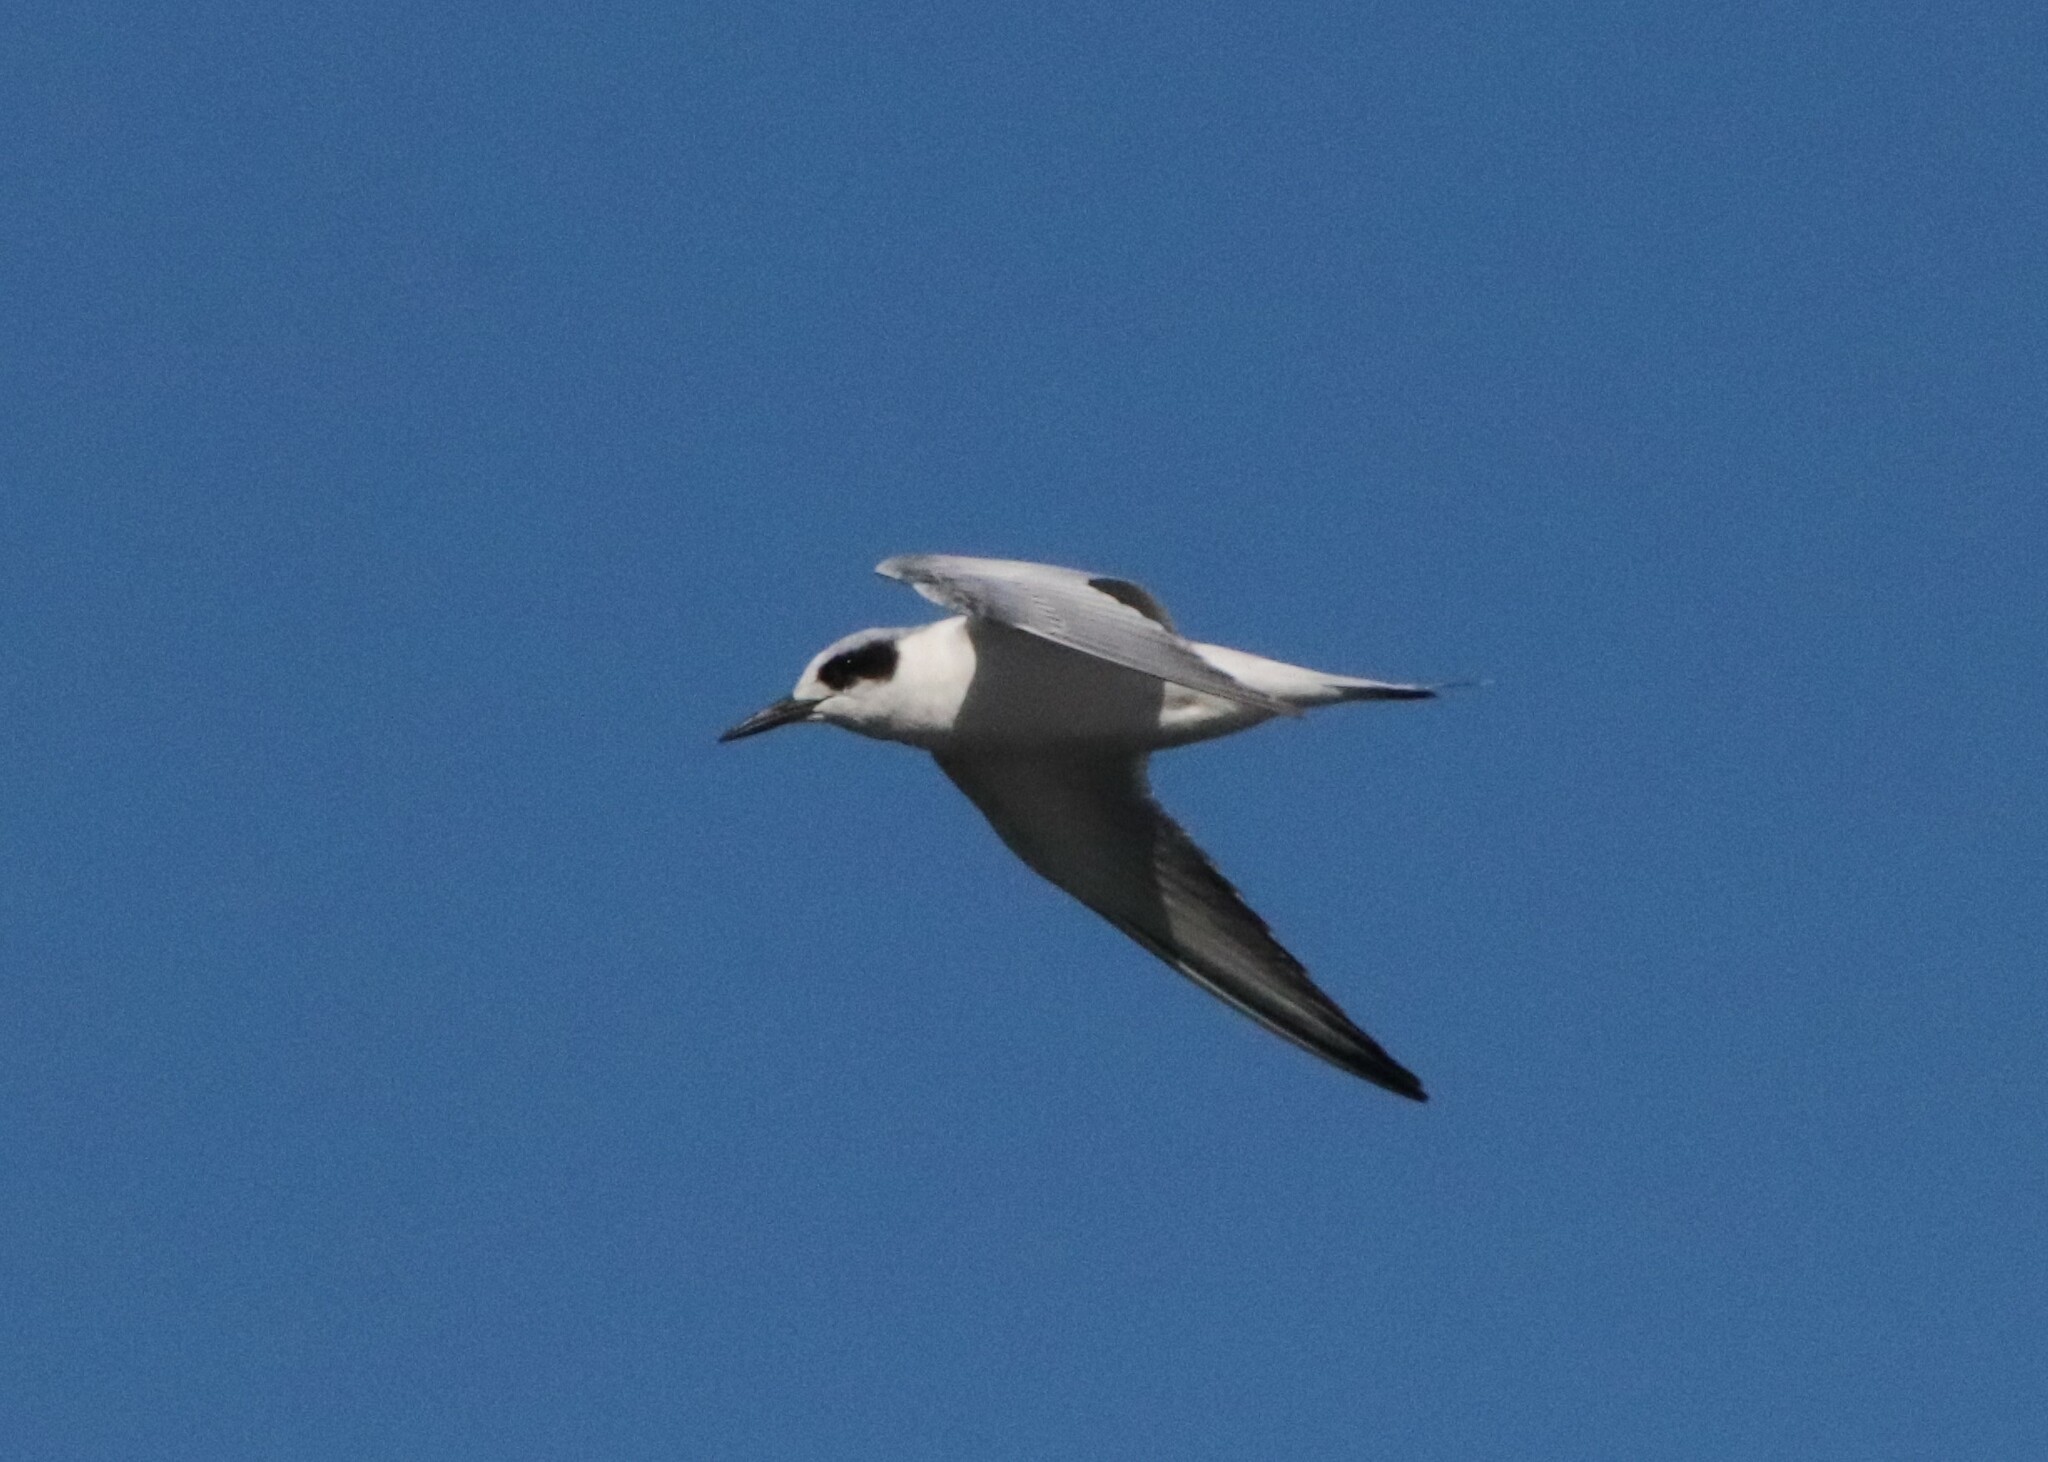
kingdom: Animalia
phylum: Chordata
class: Aves
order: Charadriiformes
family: Laridae
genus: Sterna
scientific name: Sterna forsteri
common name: Forster's tern
